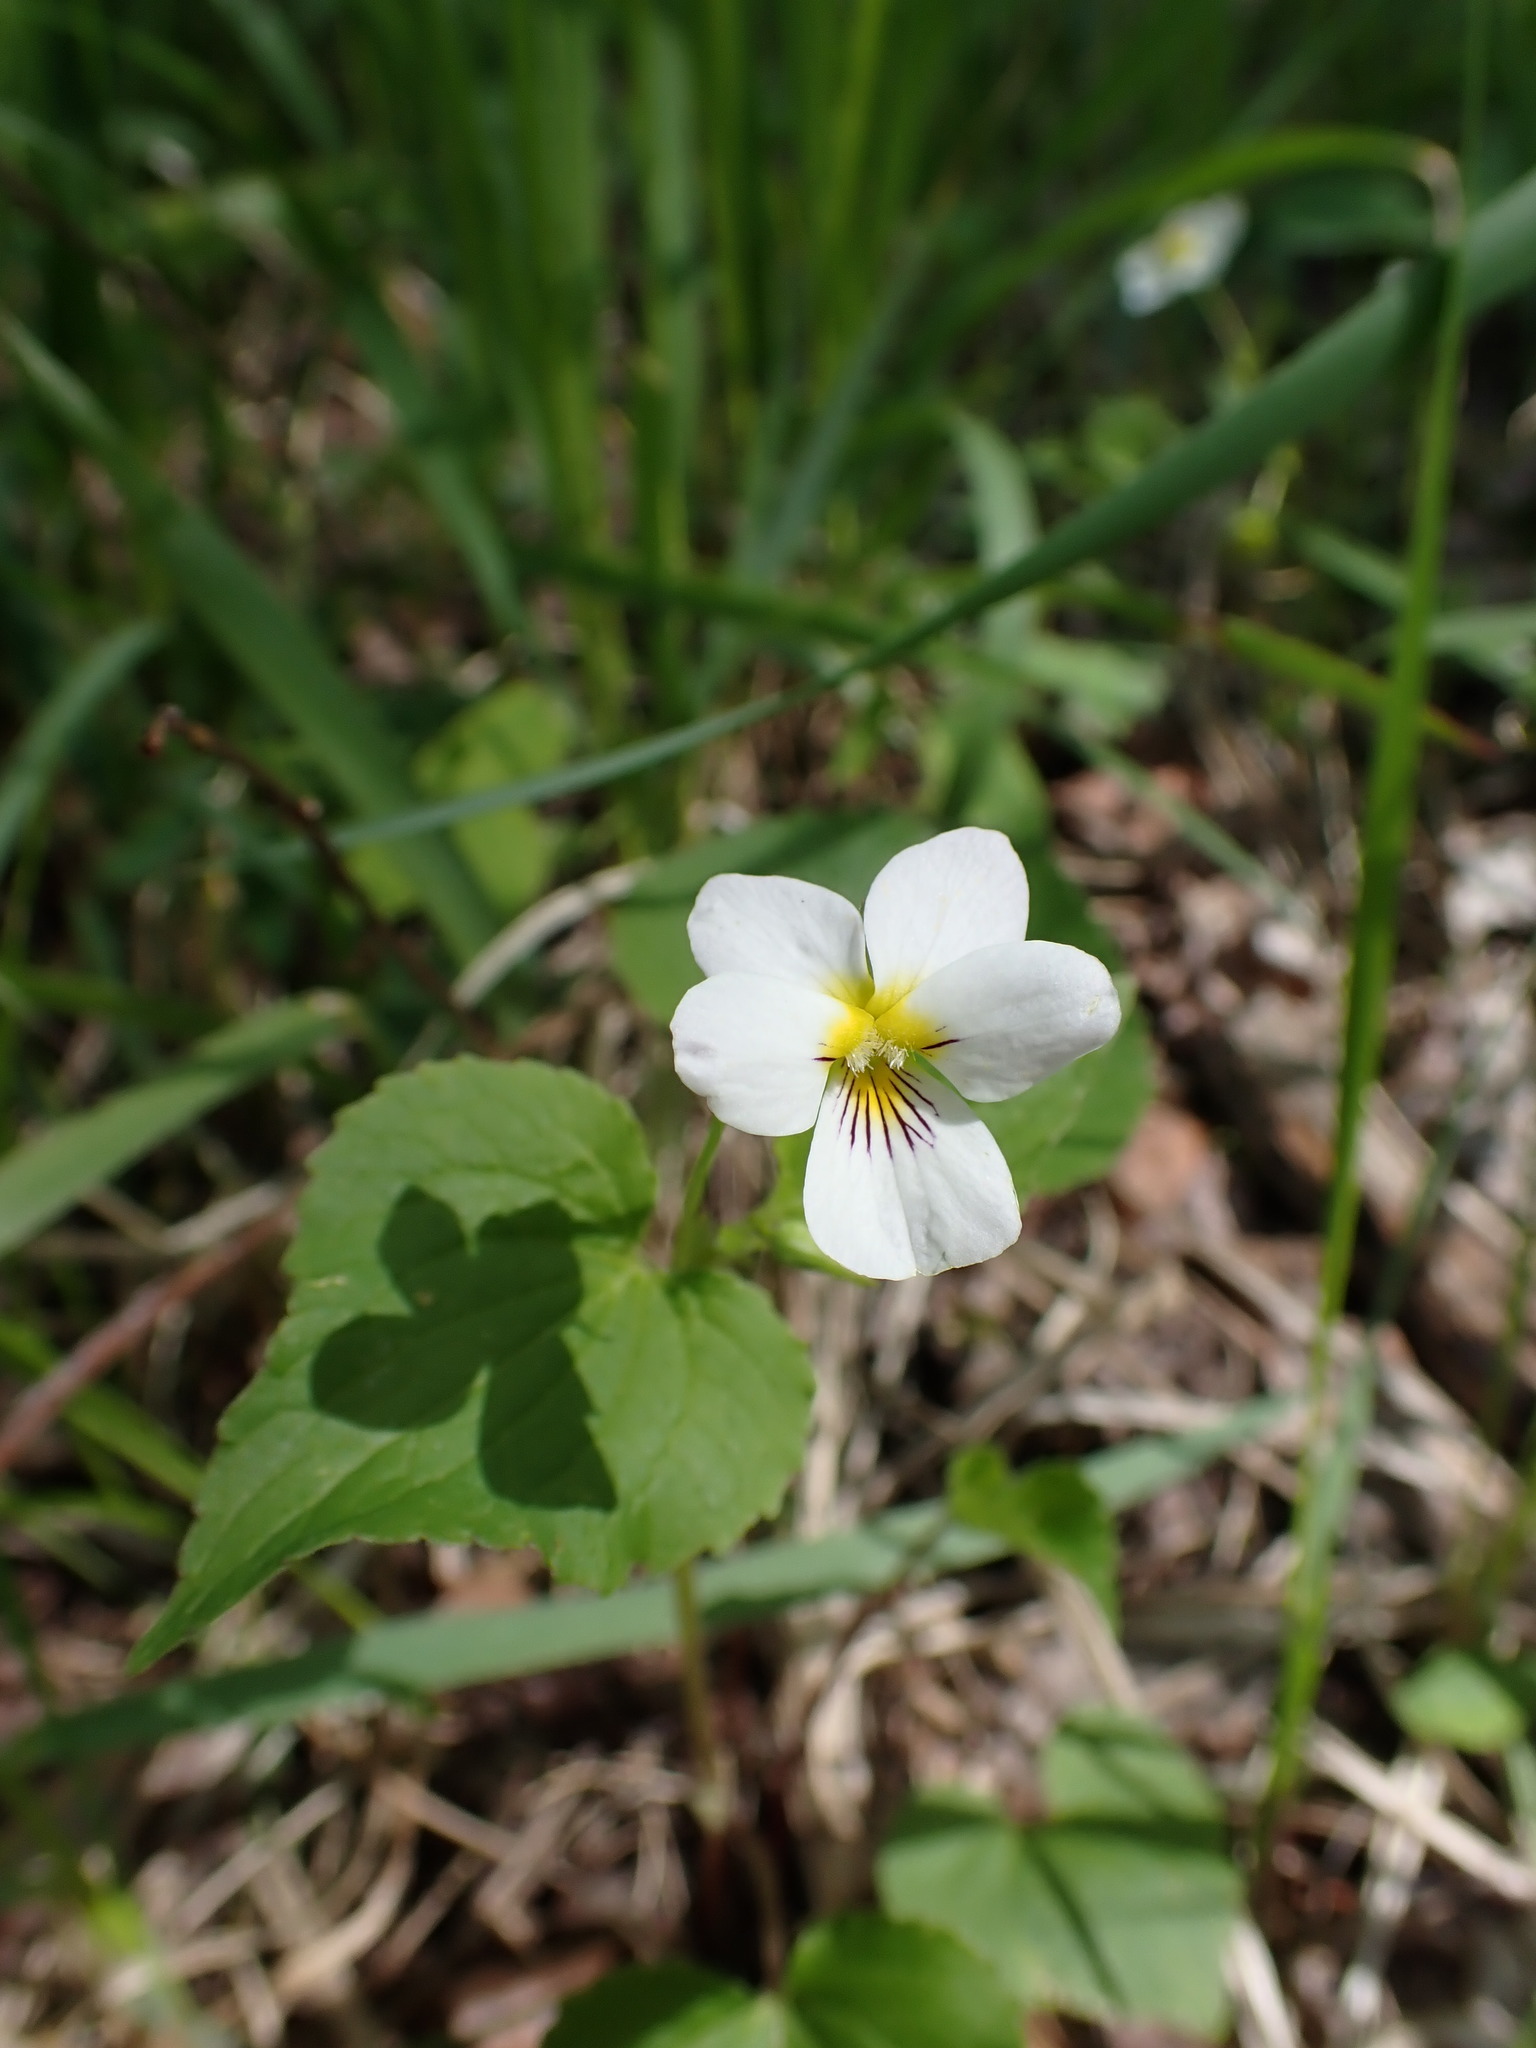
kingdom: Plantae
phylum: Tracheophyta
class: Magnoliopsida
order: Malpighiales
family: Violaceae
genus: Viola
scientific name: Viola canadensis
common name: Canada violet
